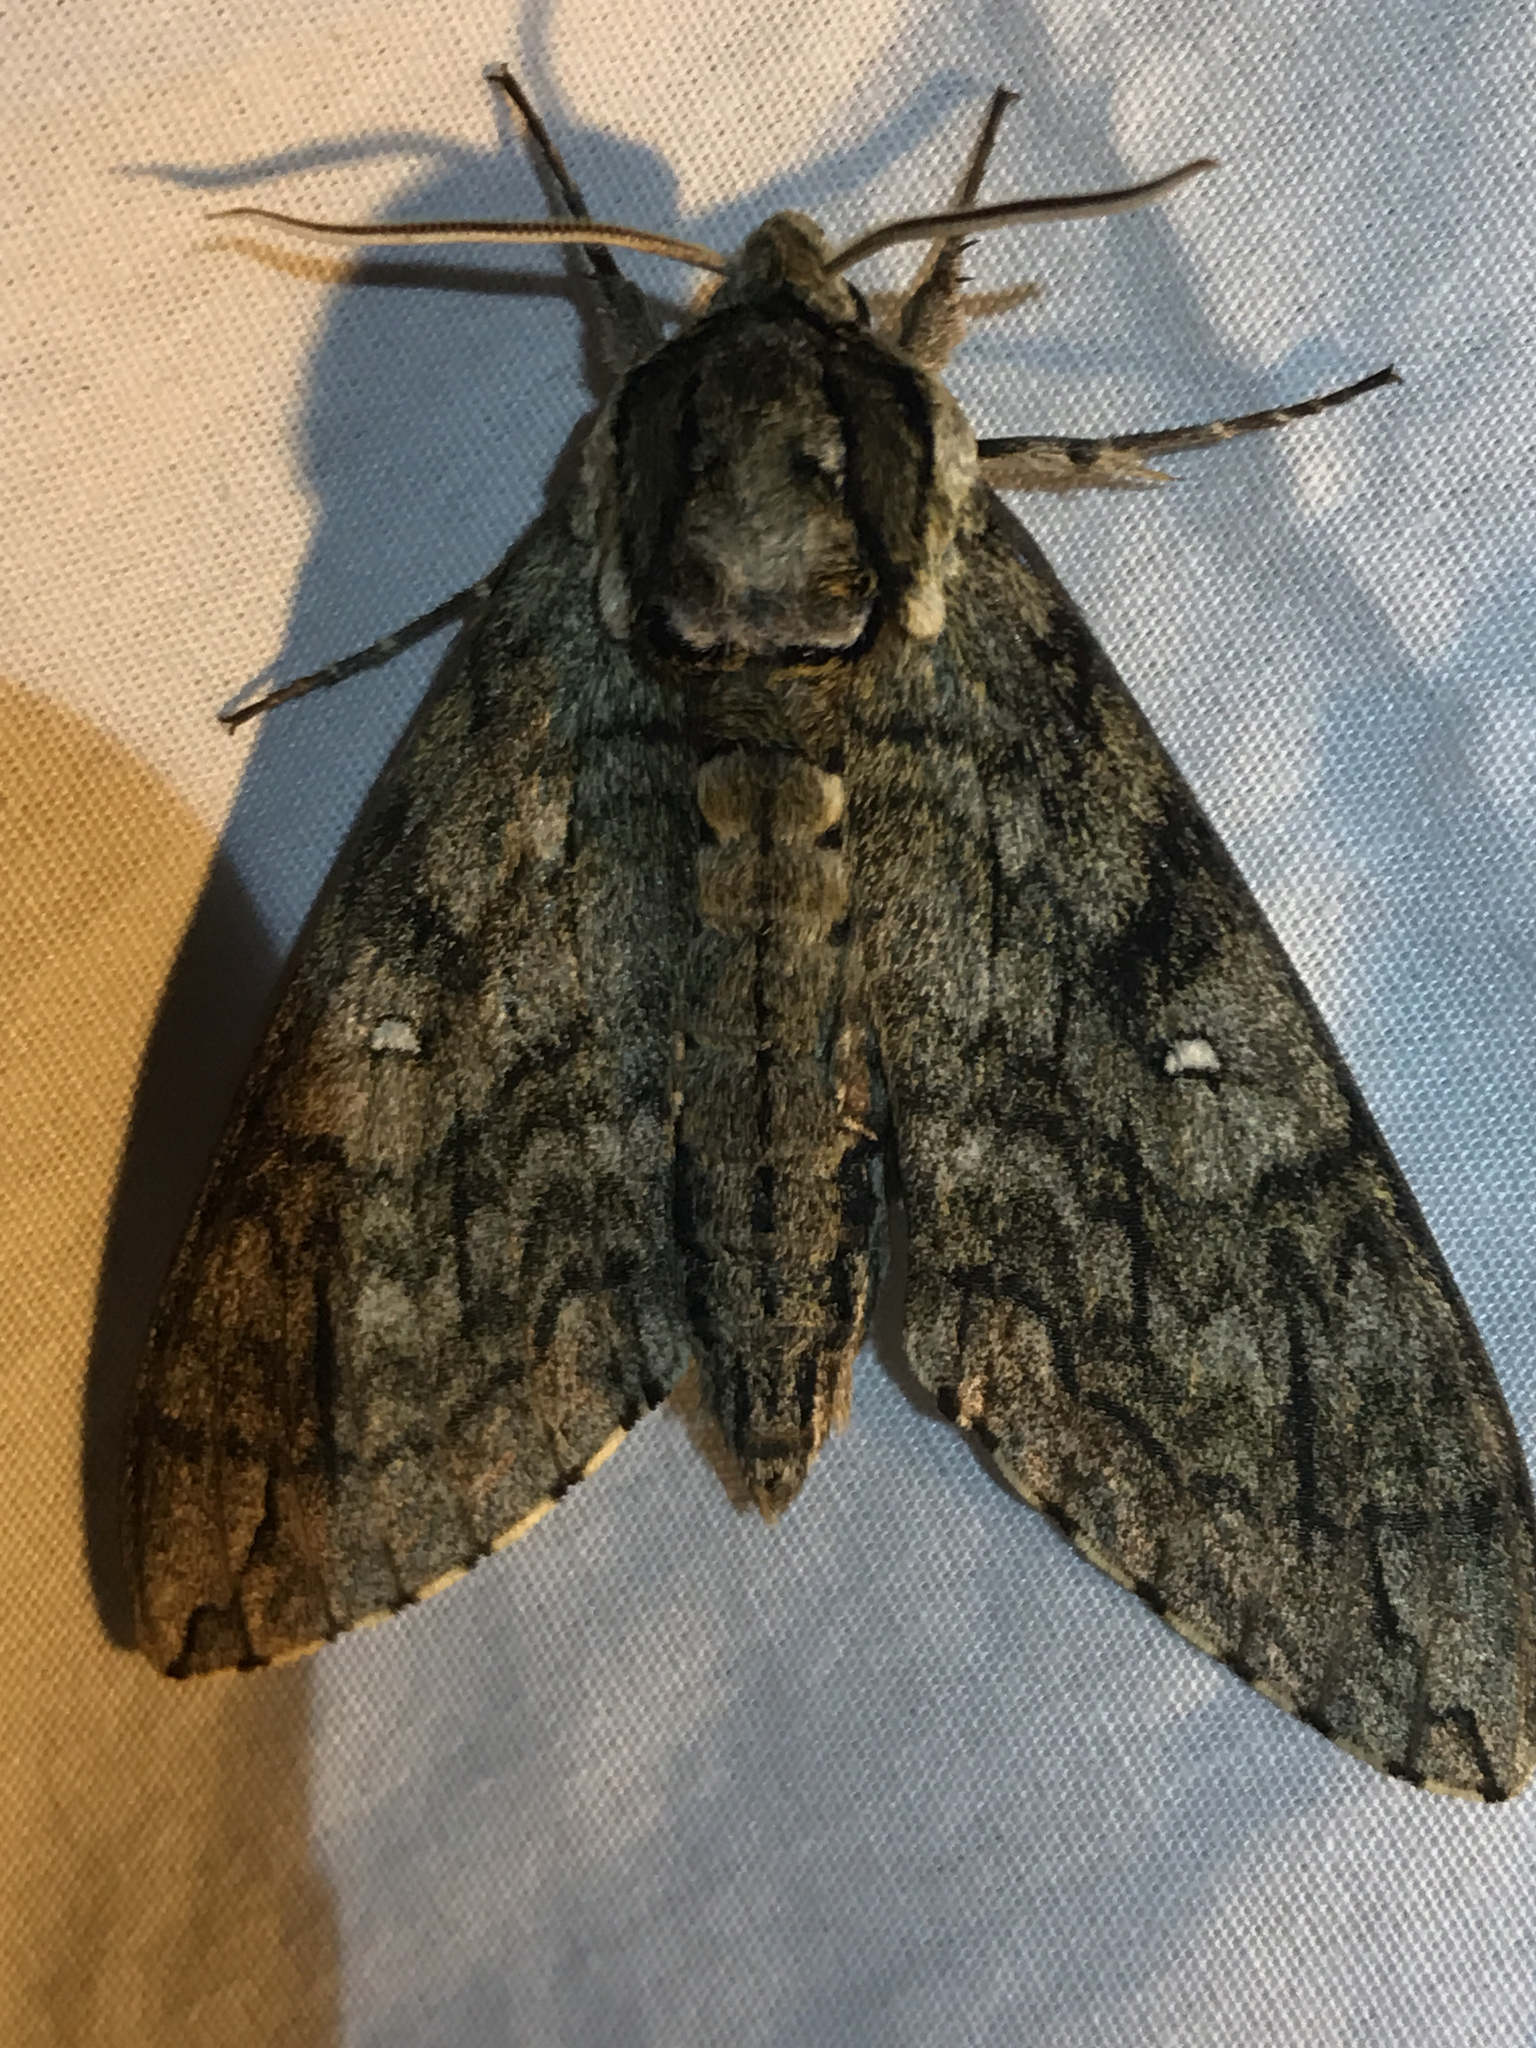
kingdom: Animalia
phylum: Arthropoda
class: Insecta
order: Lepidoptera
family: Sphingidae
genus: Ceratomia
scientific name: Ceratomia undulosa
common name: Waved sphinx
